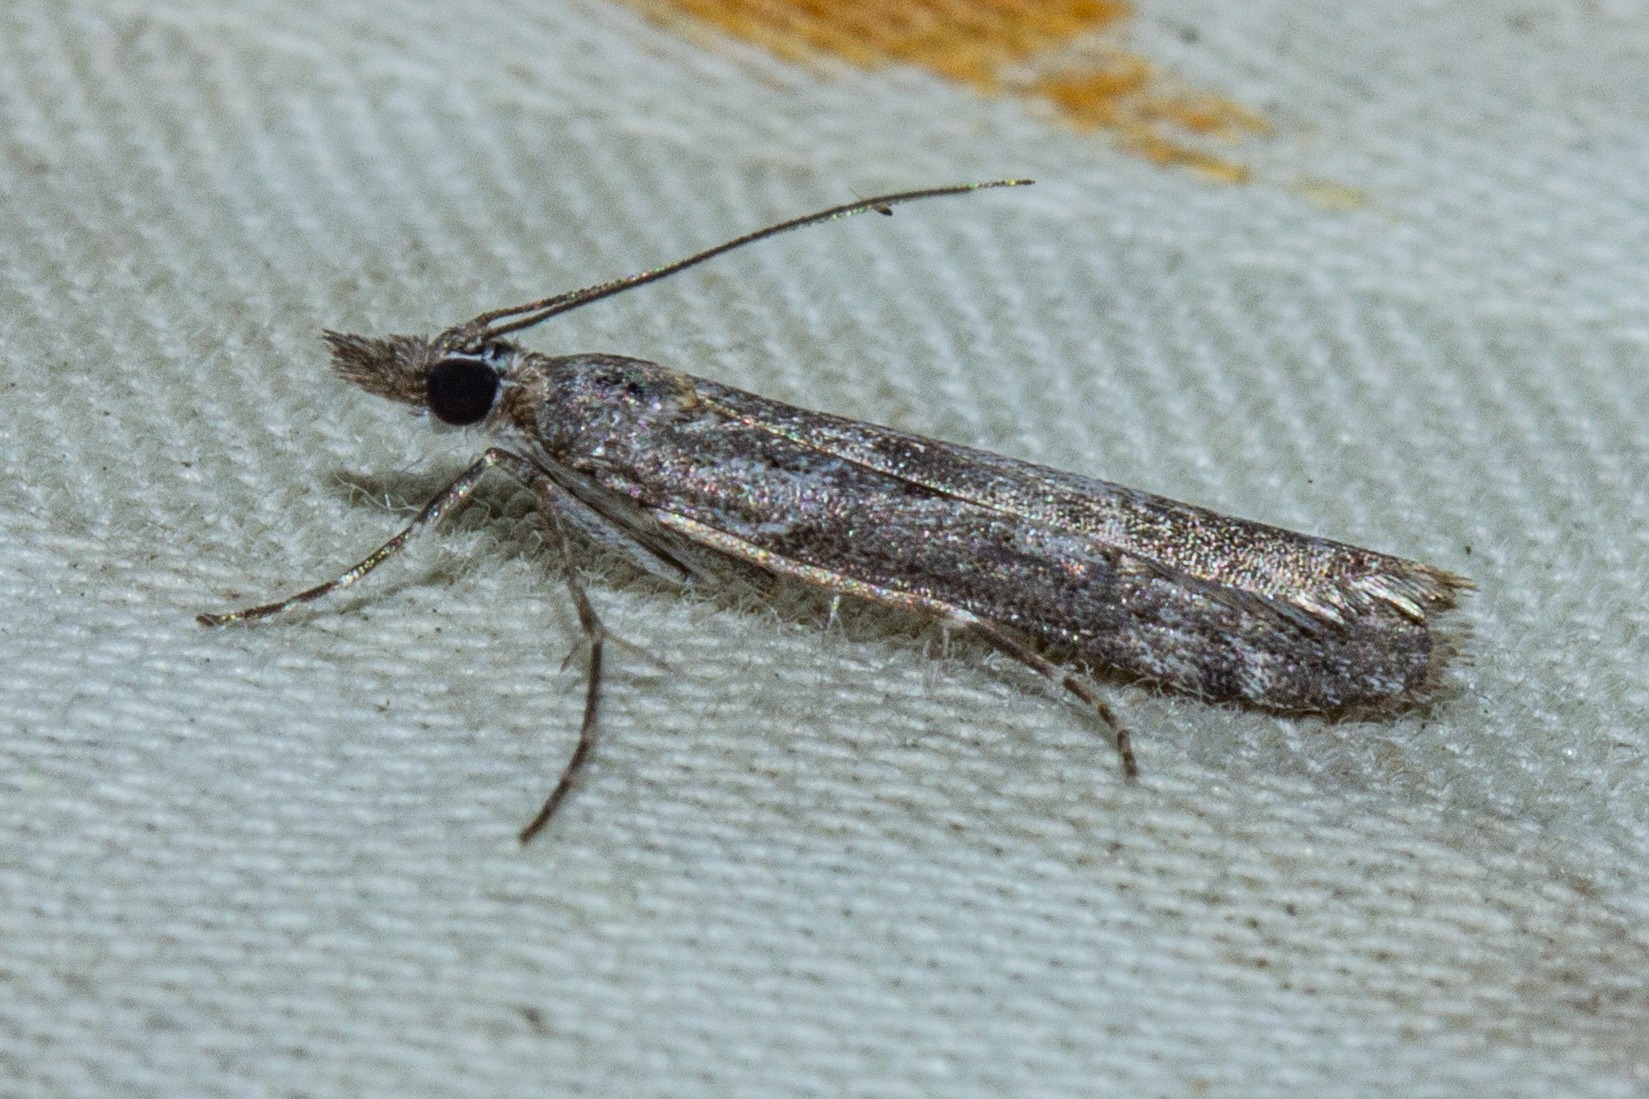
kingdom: Animalia
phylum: Arthropoda
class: Insecta
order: Lepidoptera
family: Crambidae
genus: Eudonia
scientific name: Eudonia leptalea
